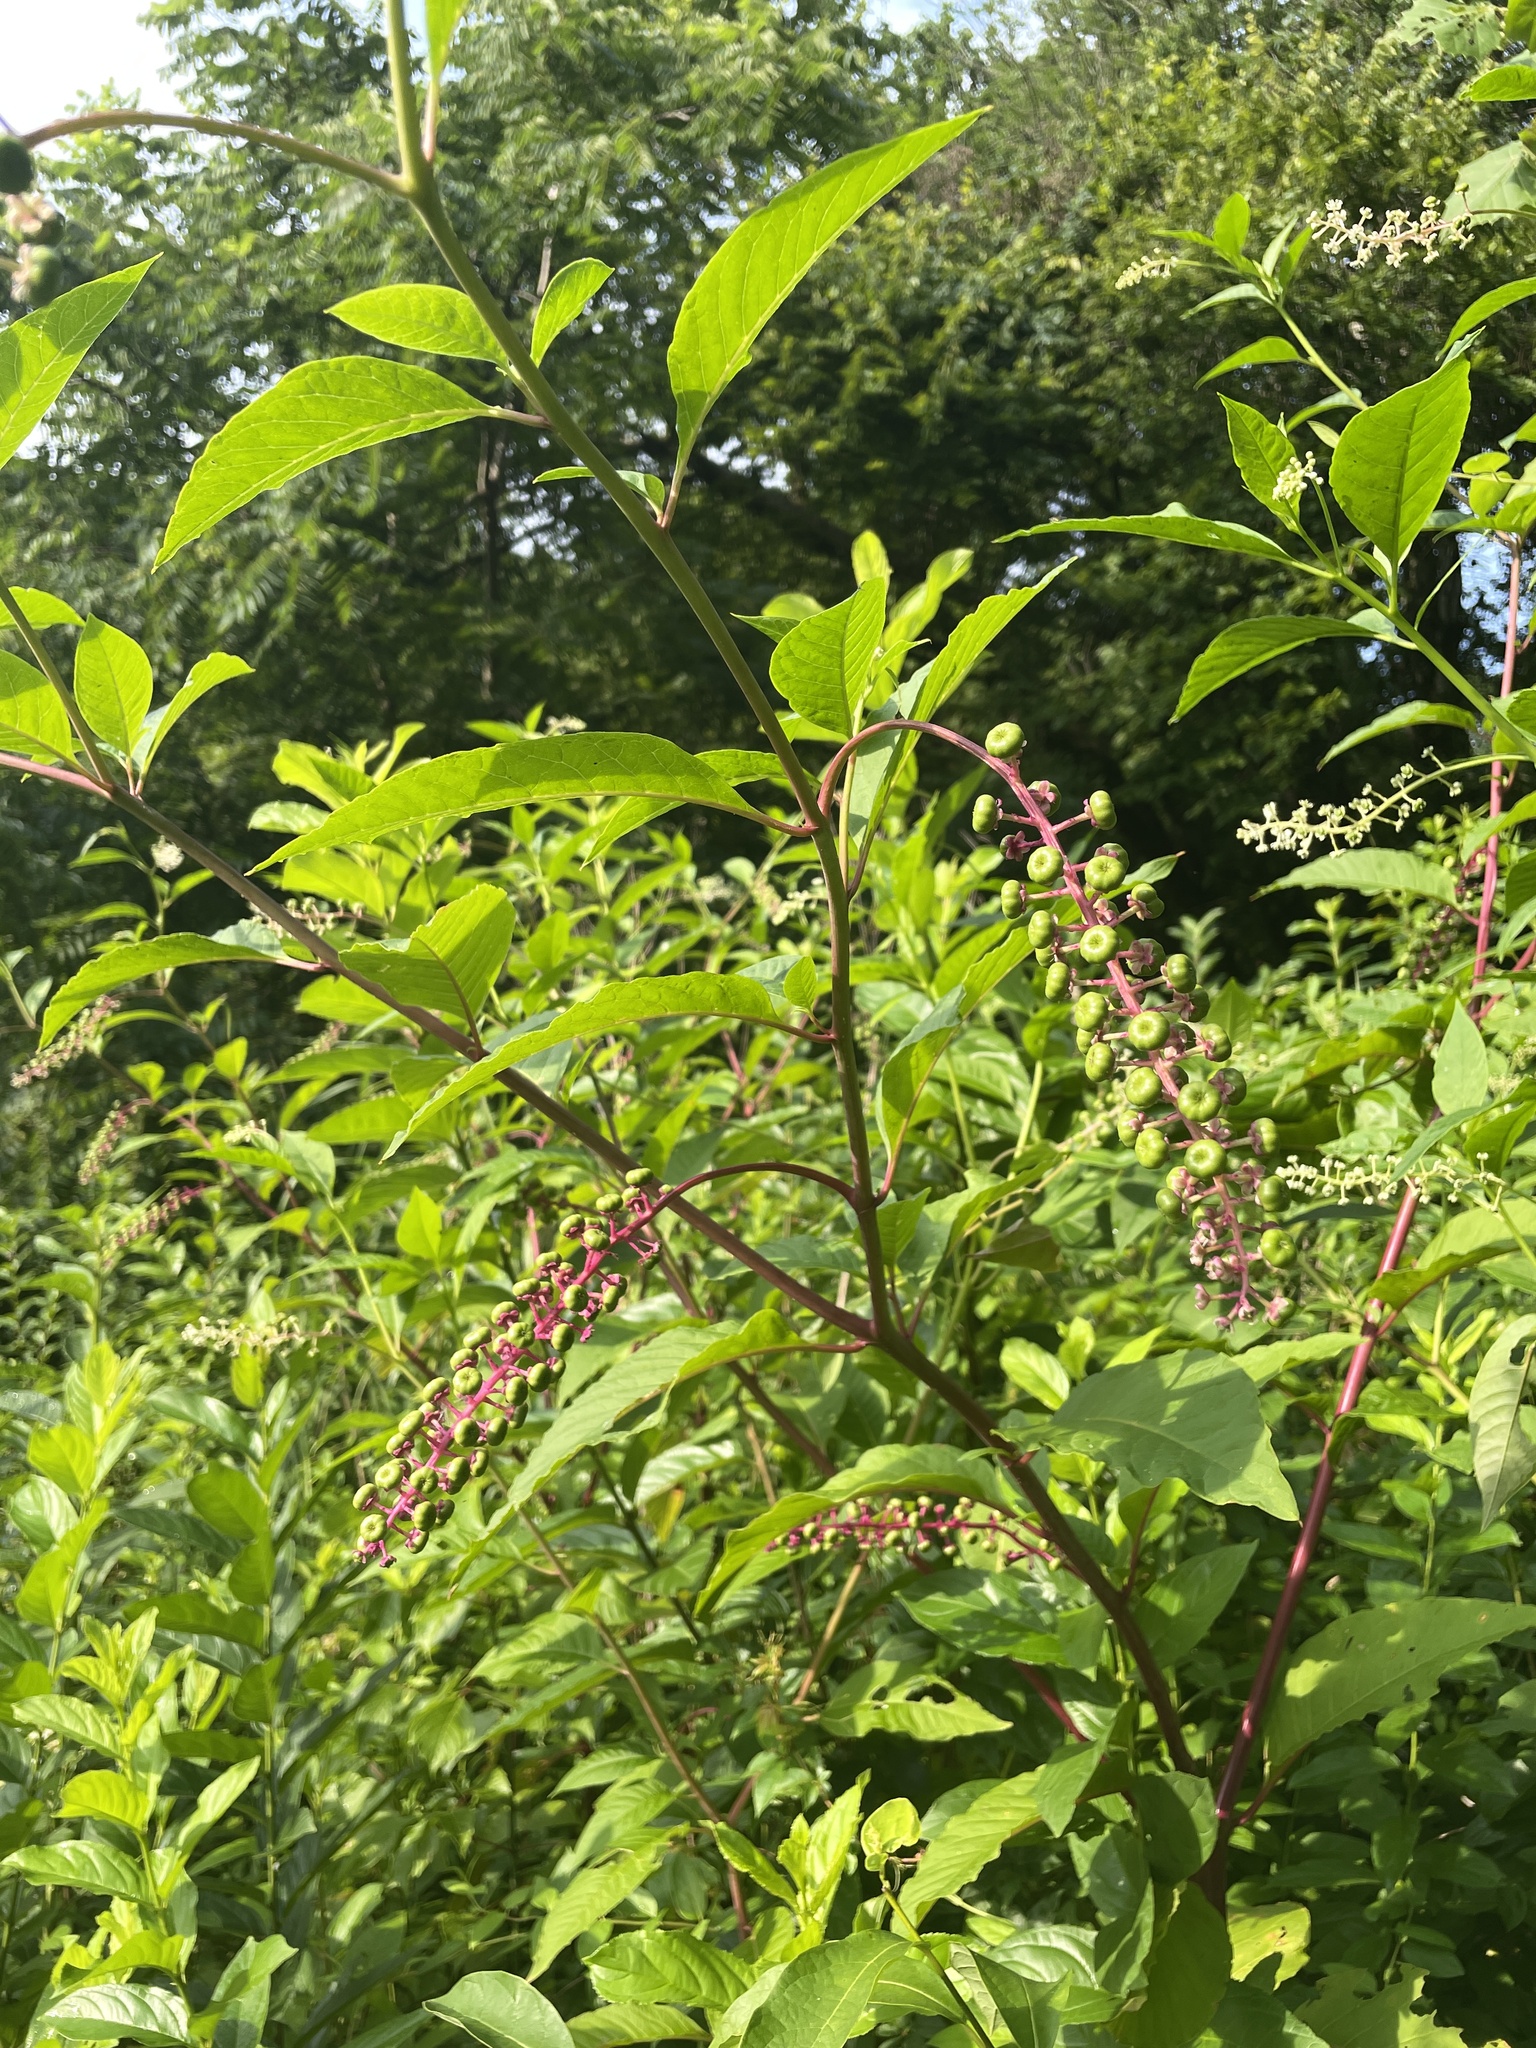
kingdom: Plantae
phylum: Tracheophyta
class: Magnoliopsida
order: Caryophyllales
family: Phytolaccaceae
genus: Phytolacca
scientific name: Phytolacca americana
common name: American pokeweed
